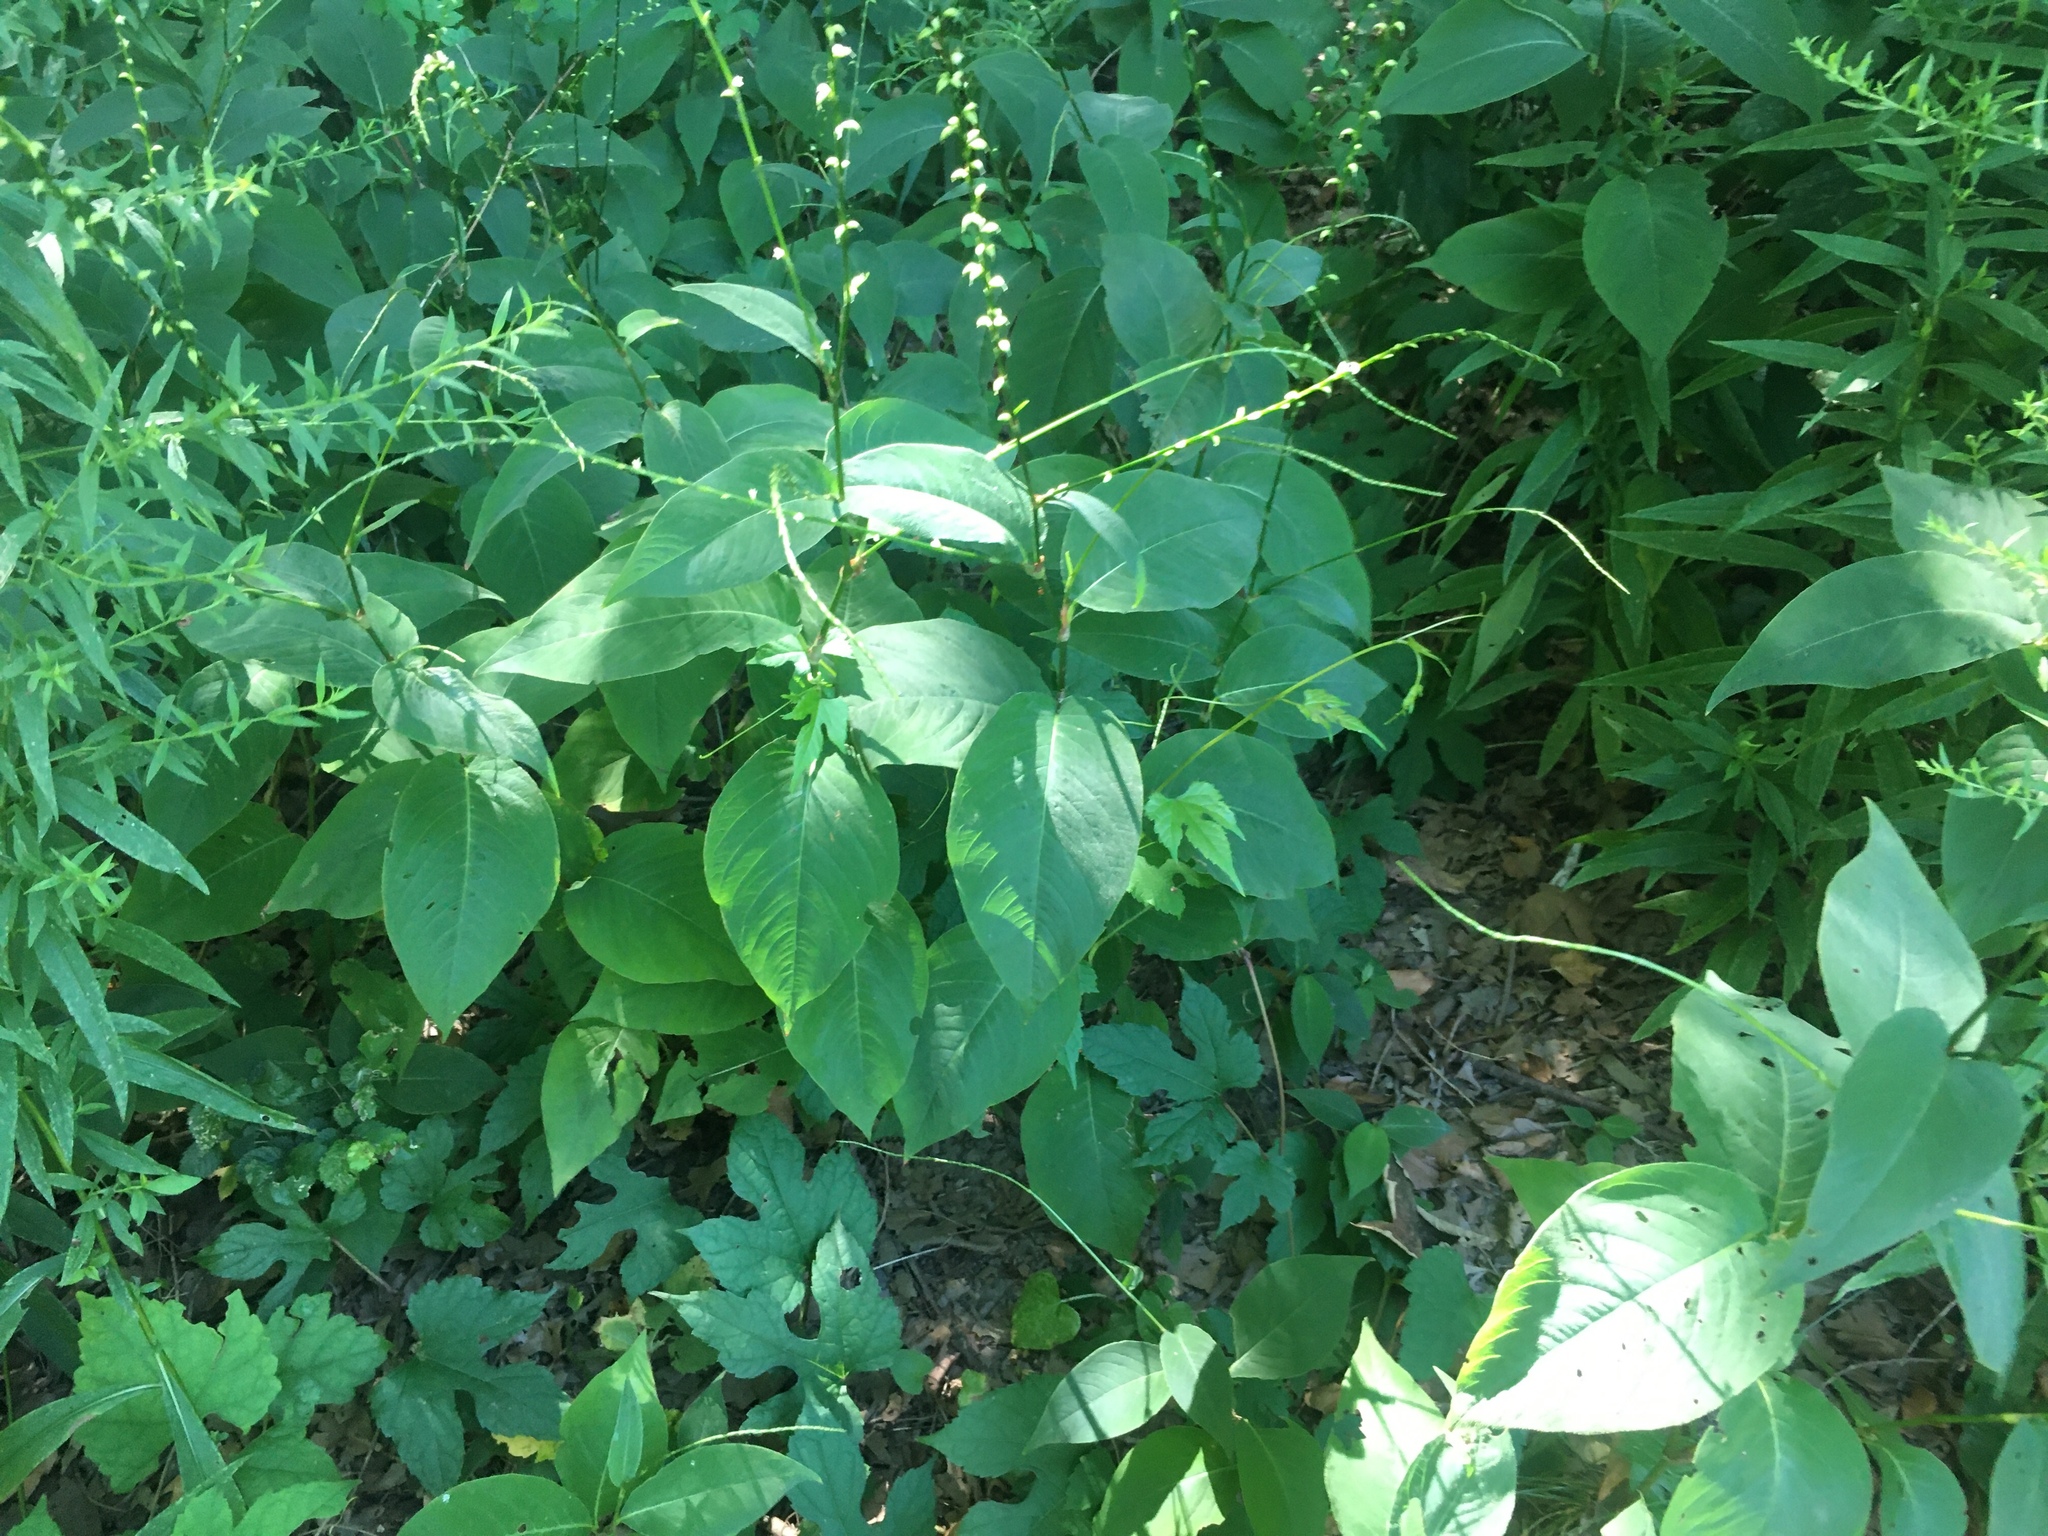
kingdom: Plantae
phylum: Tracheophyta
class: Magnoliopsida
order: Caryophyllales
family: Polygonaceae
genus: Persicaria
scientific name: Persicaria virginiana
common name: Jumpseed
